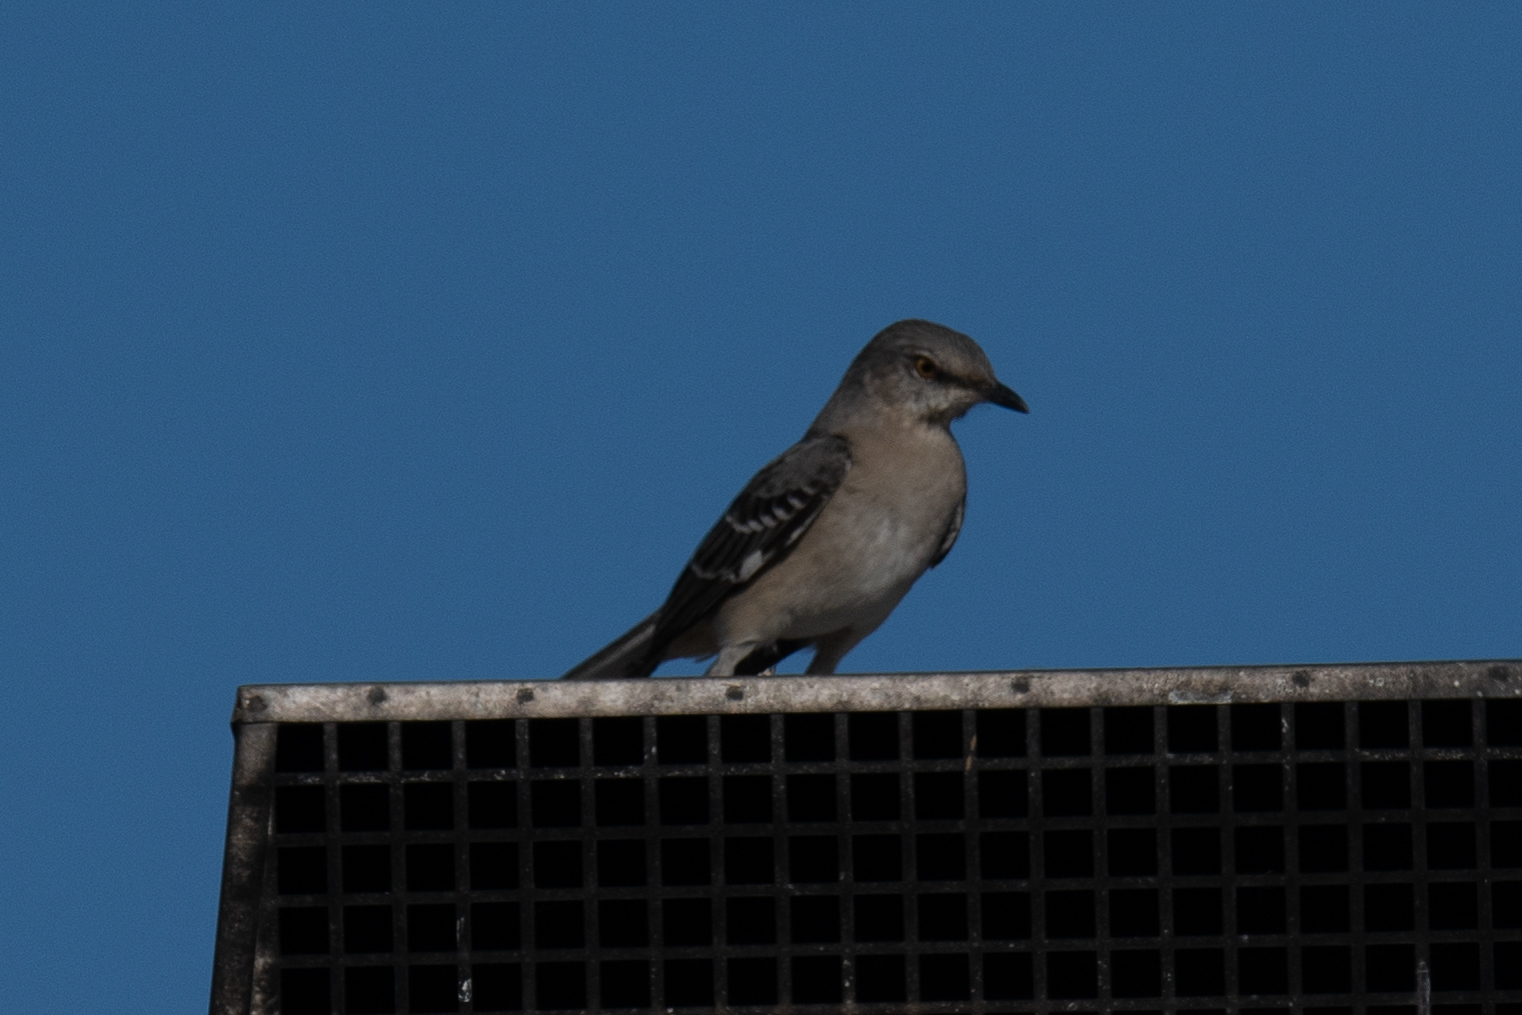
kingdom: Animalia
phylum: Chordata
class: Aves
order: Passeriformes
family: Mimidae
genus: Mimus
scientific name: Mimus polyglottos
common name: Northern mockingbird
